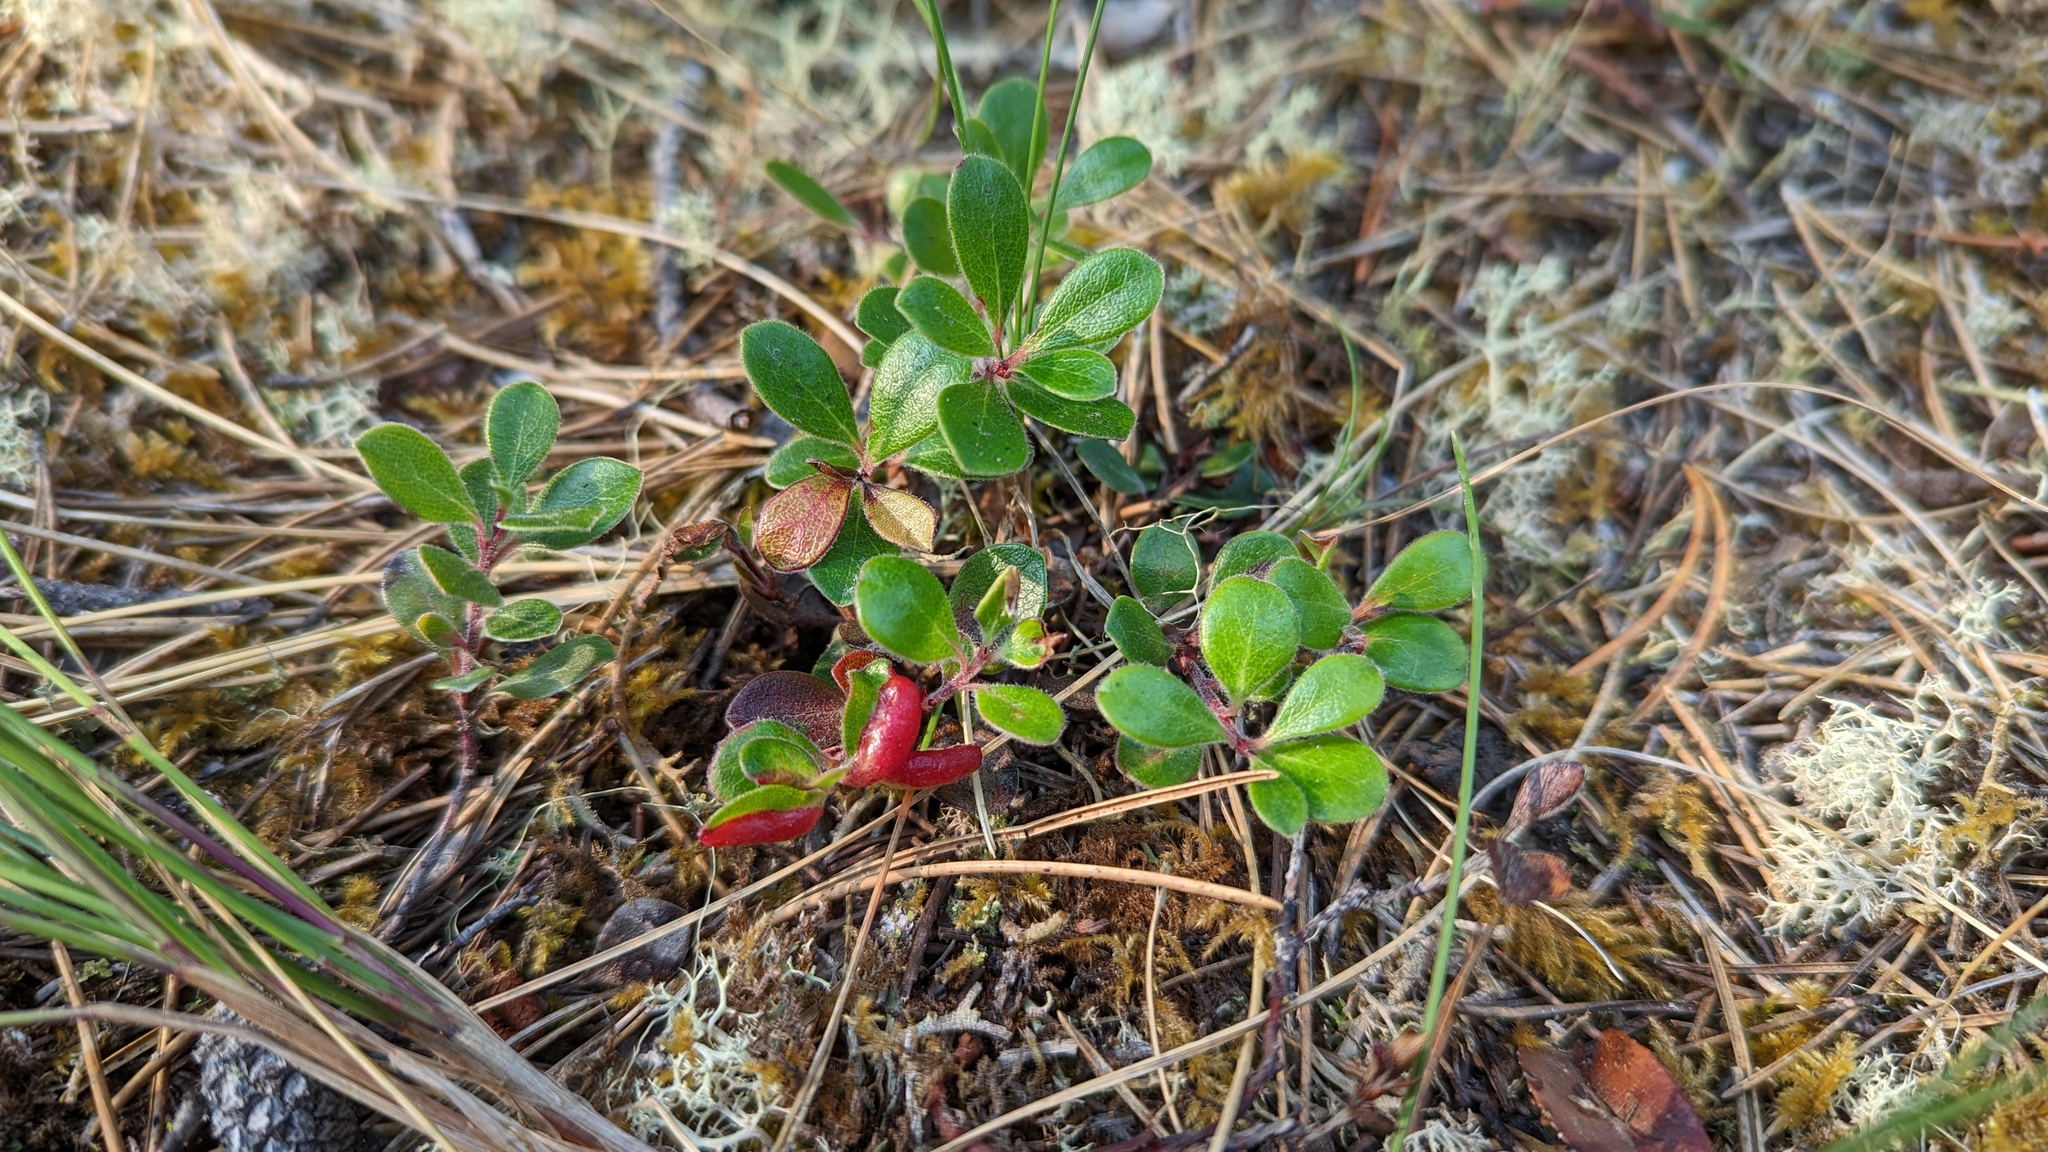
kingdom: Animalia
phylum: Arthropoda
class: Insecta
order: Hemiptera
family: Aphididae
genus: Tamalia
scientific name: Tamalia coweni
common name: Manzanita leafgall aphid
